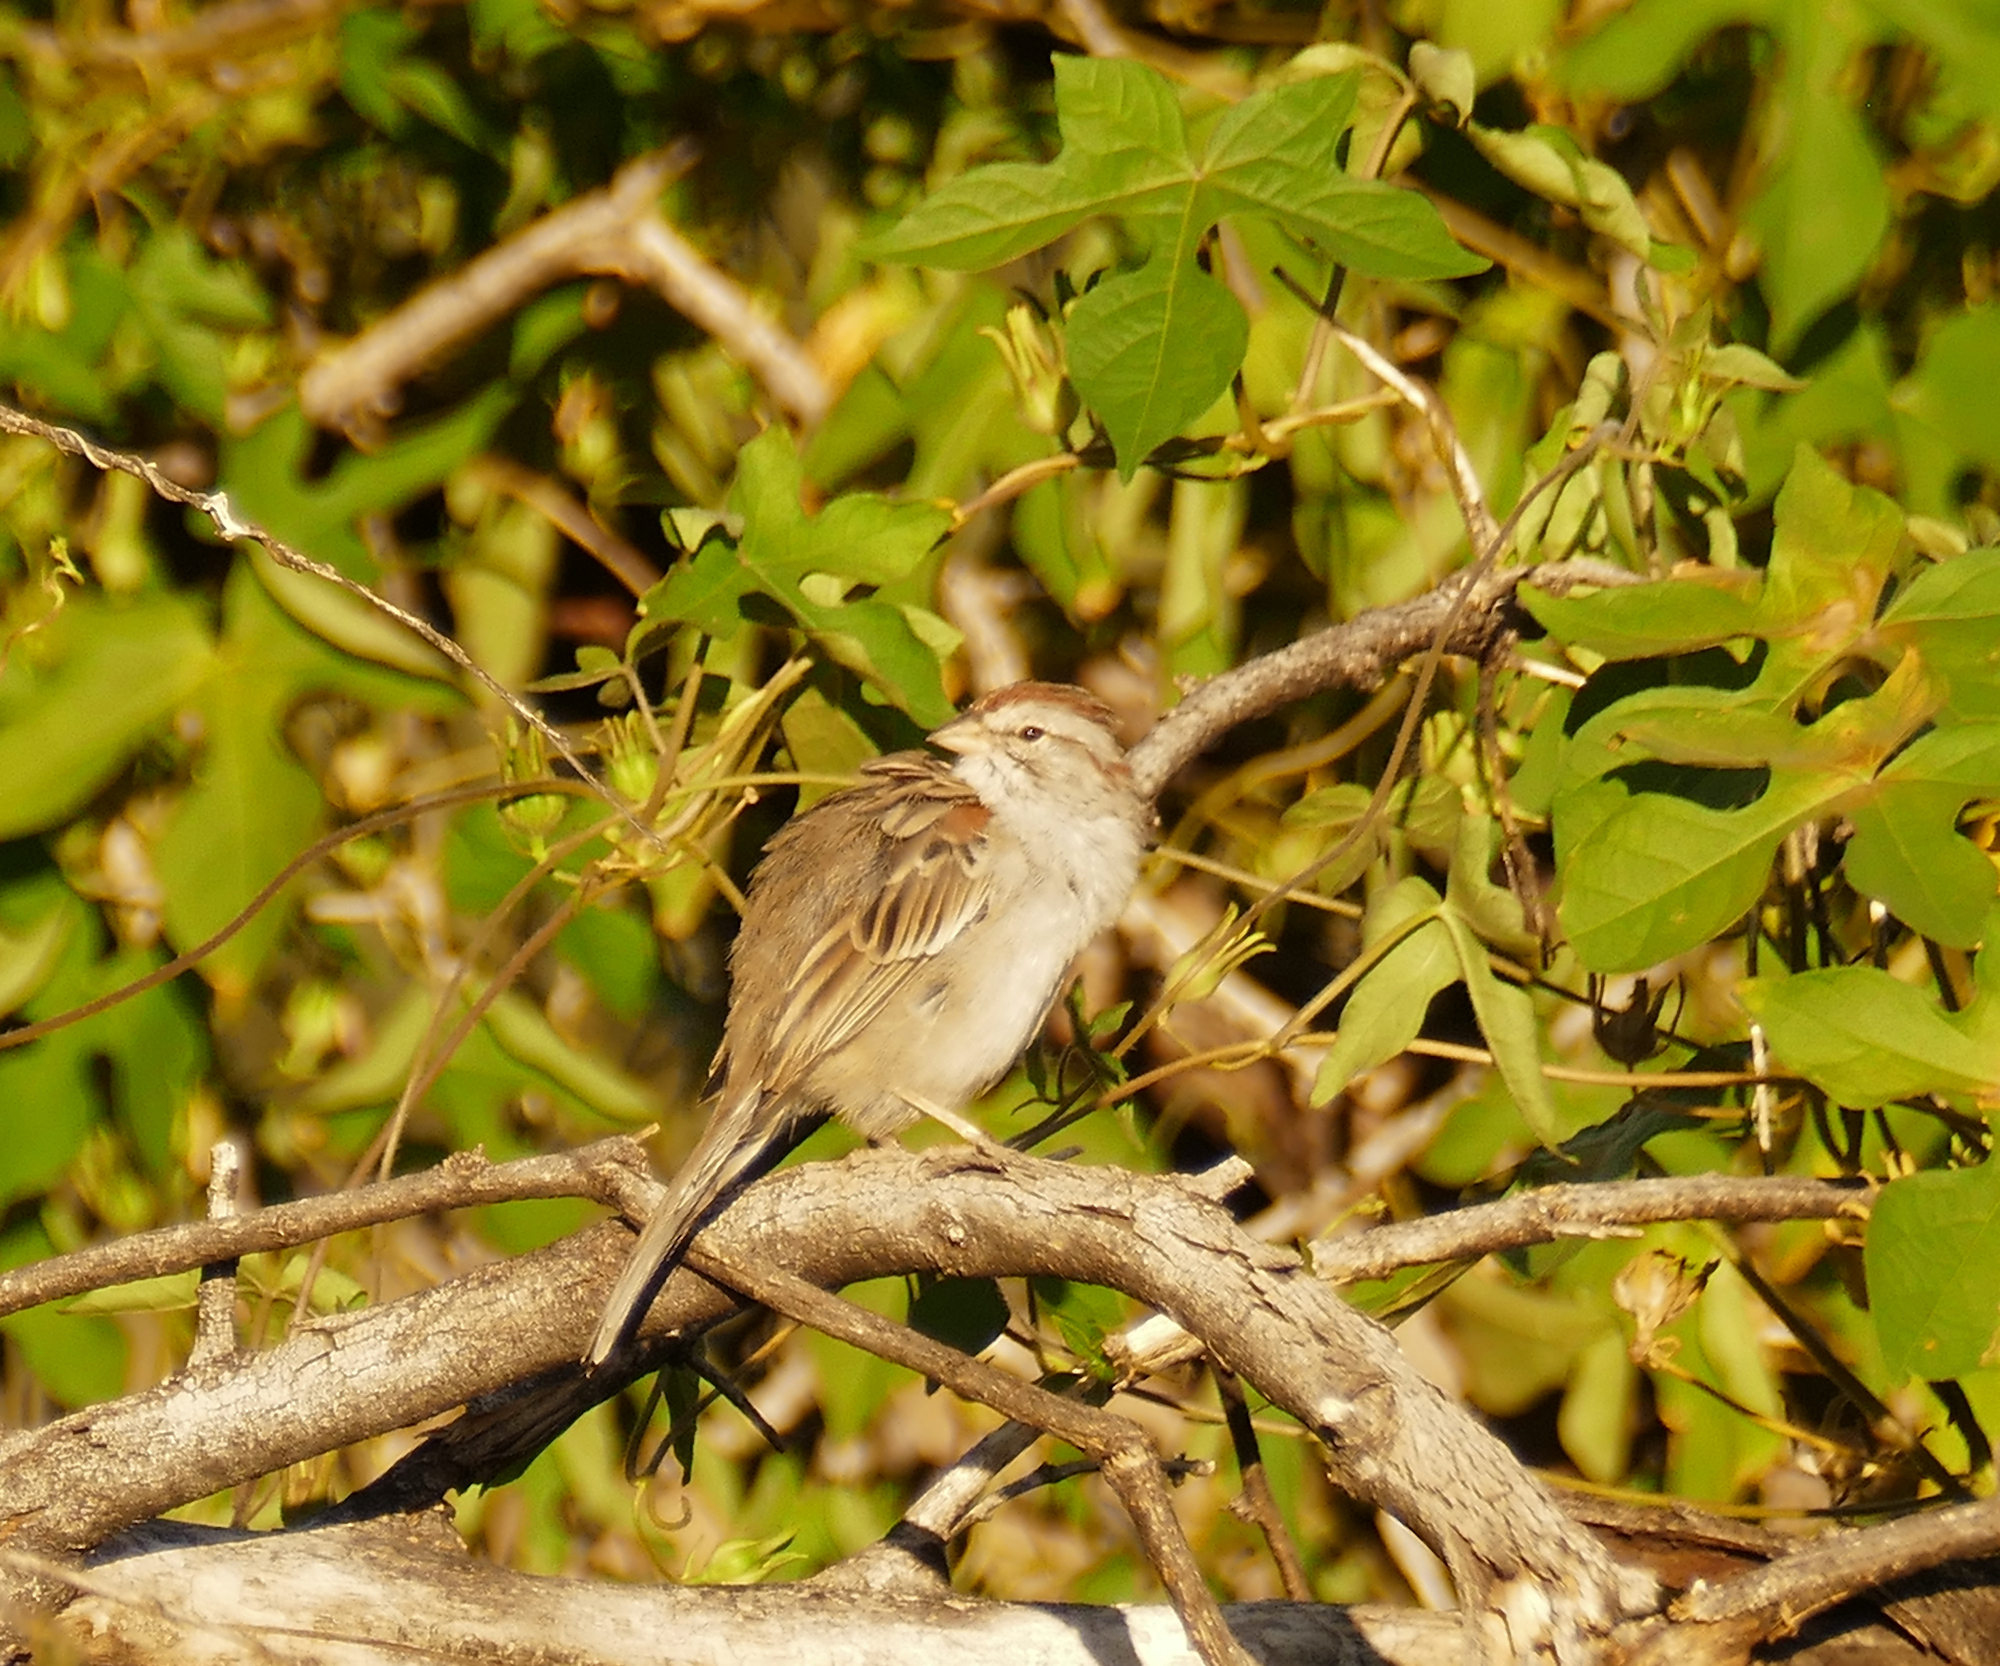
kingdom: Animalia
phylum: Chordata
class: Aves
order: Passeriformes
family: Passerellidae
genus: Peucaea
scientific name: Peucaea carpalis
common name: Rufous-winged sparrow
